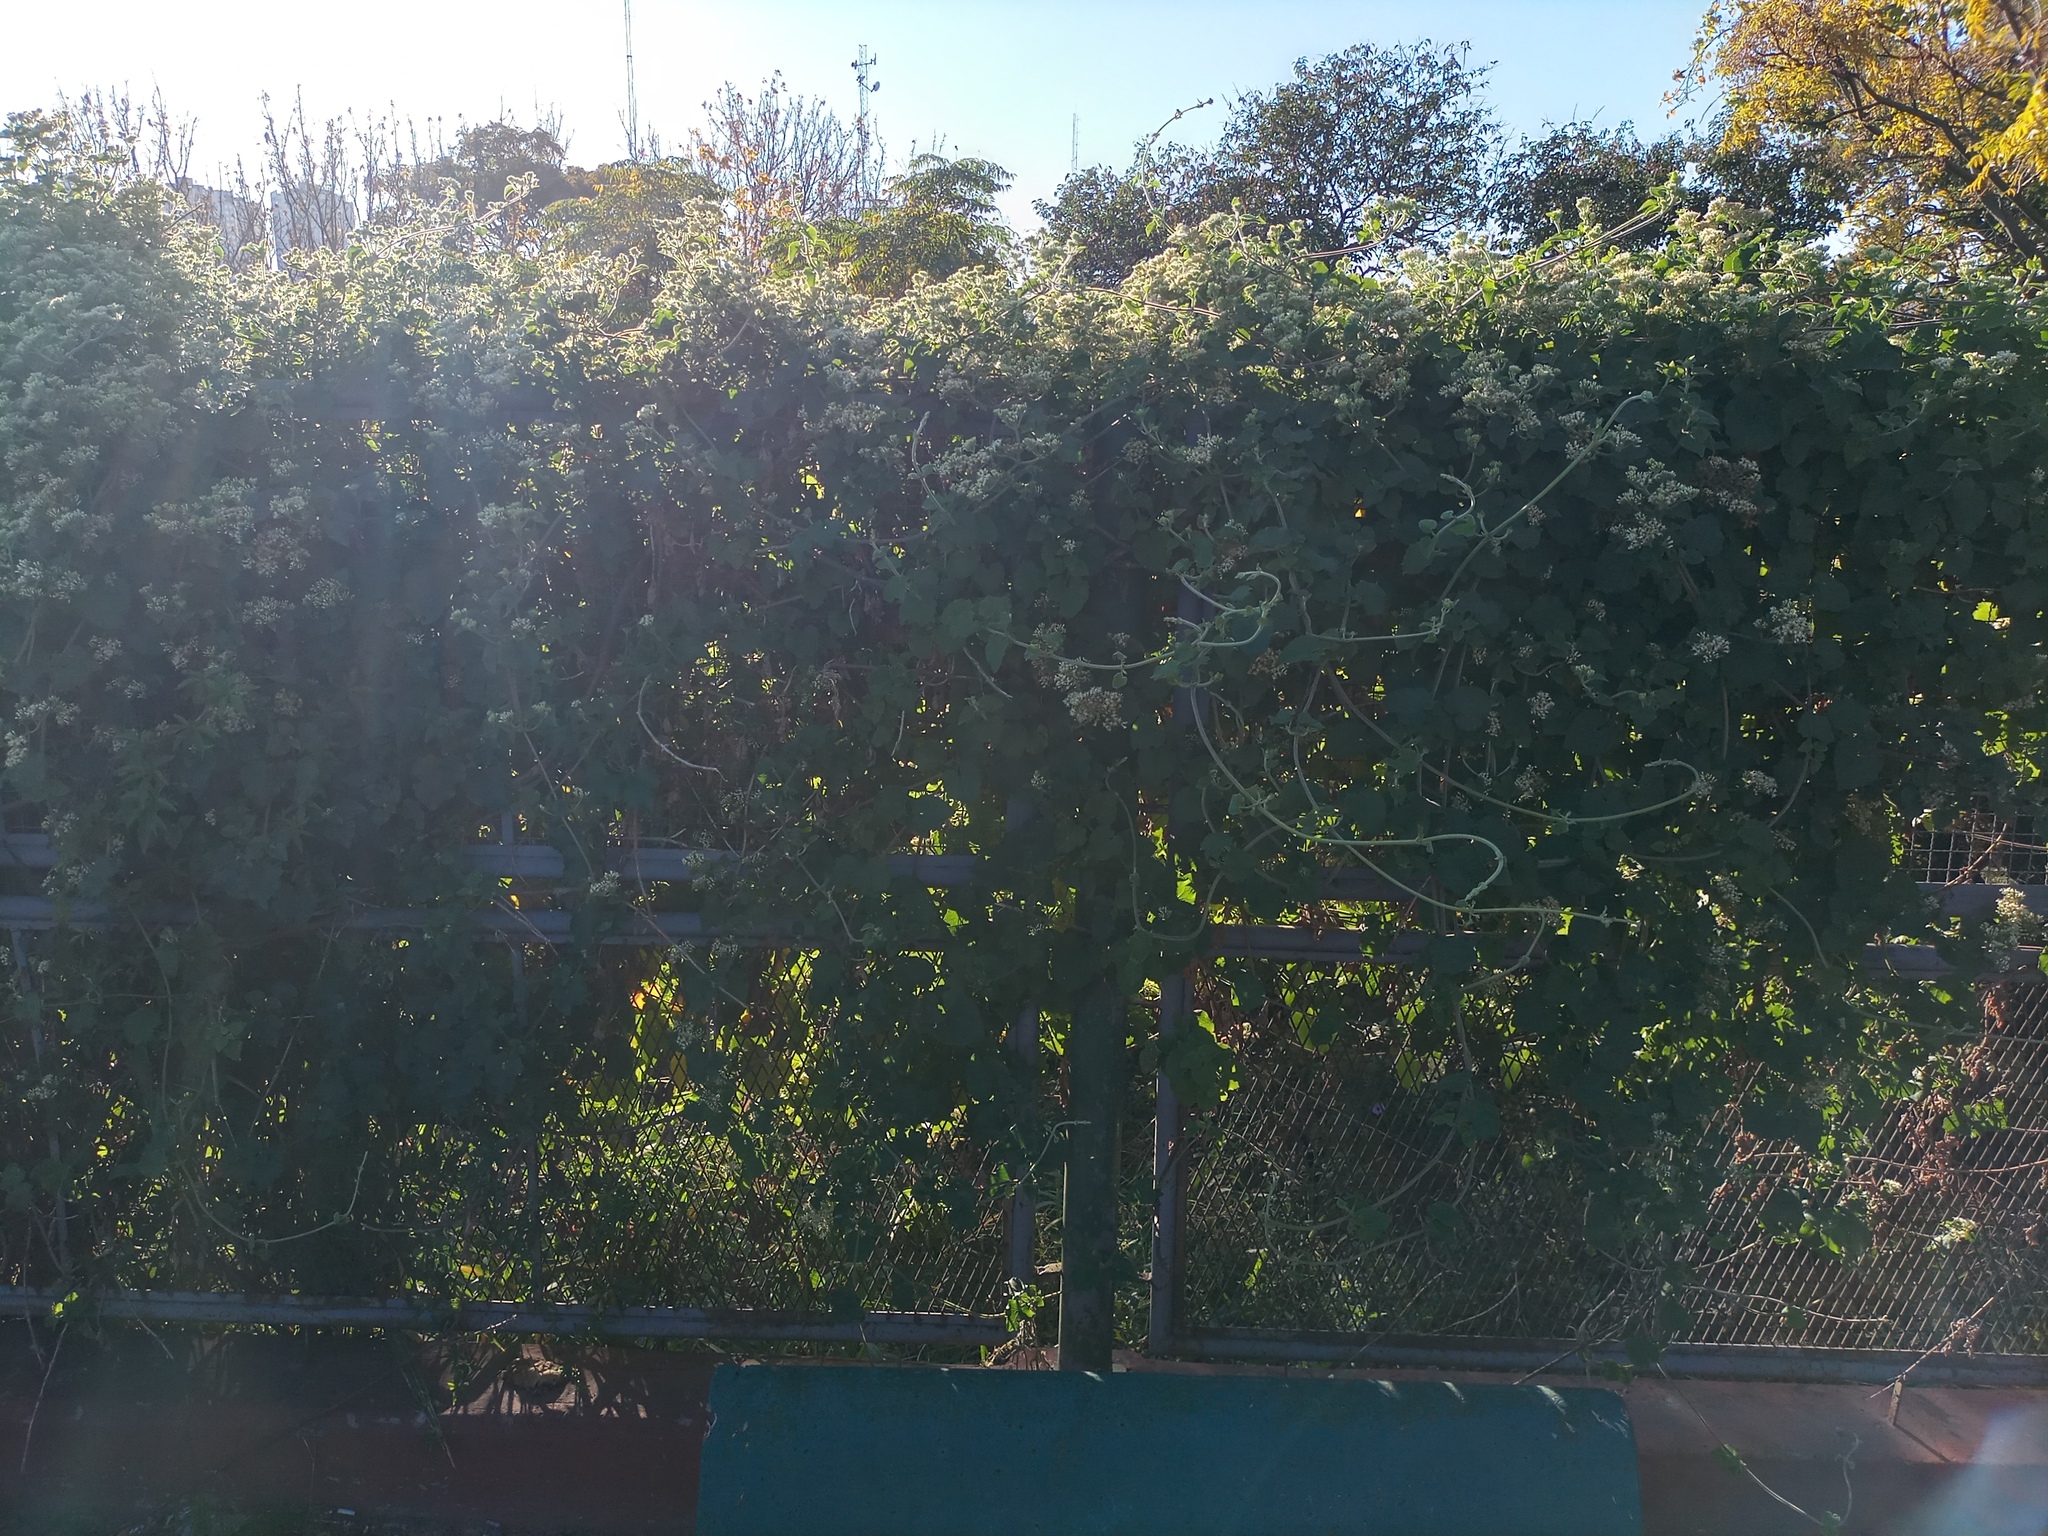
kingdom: Plantae
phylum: Tracheophyta
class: Magnoliopsida
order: Asterales
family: Asteraceae
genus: Mikania
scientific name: Mikania cordifolia
